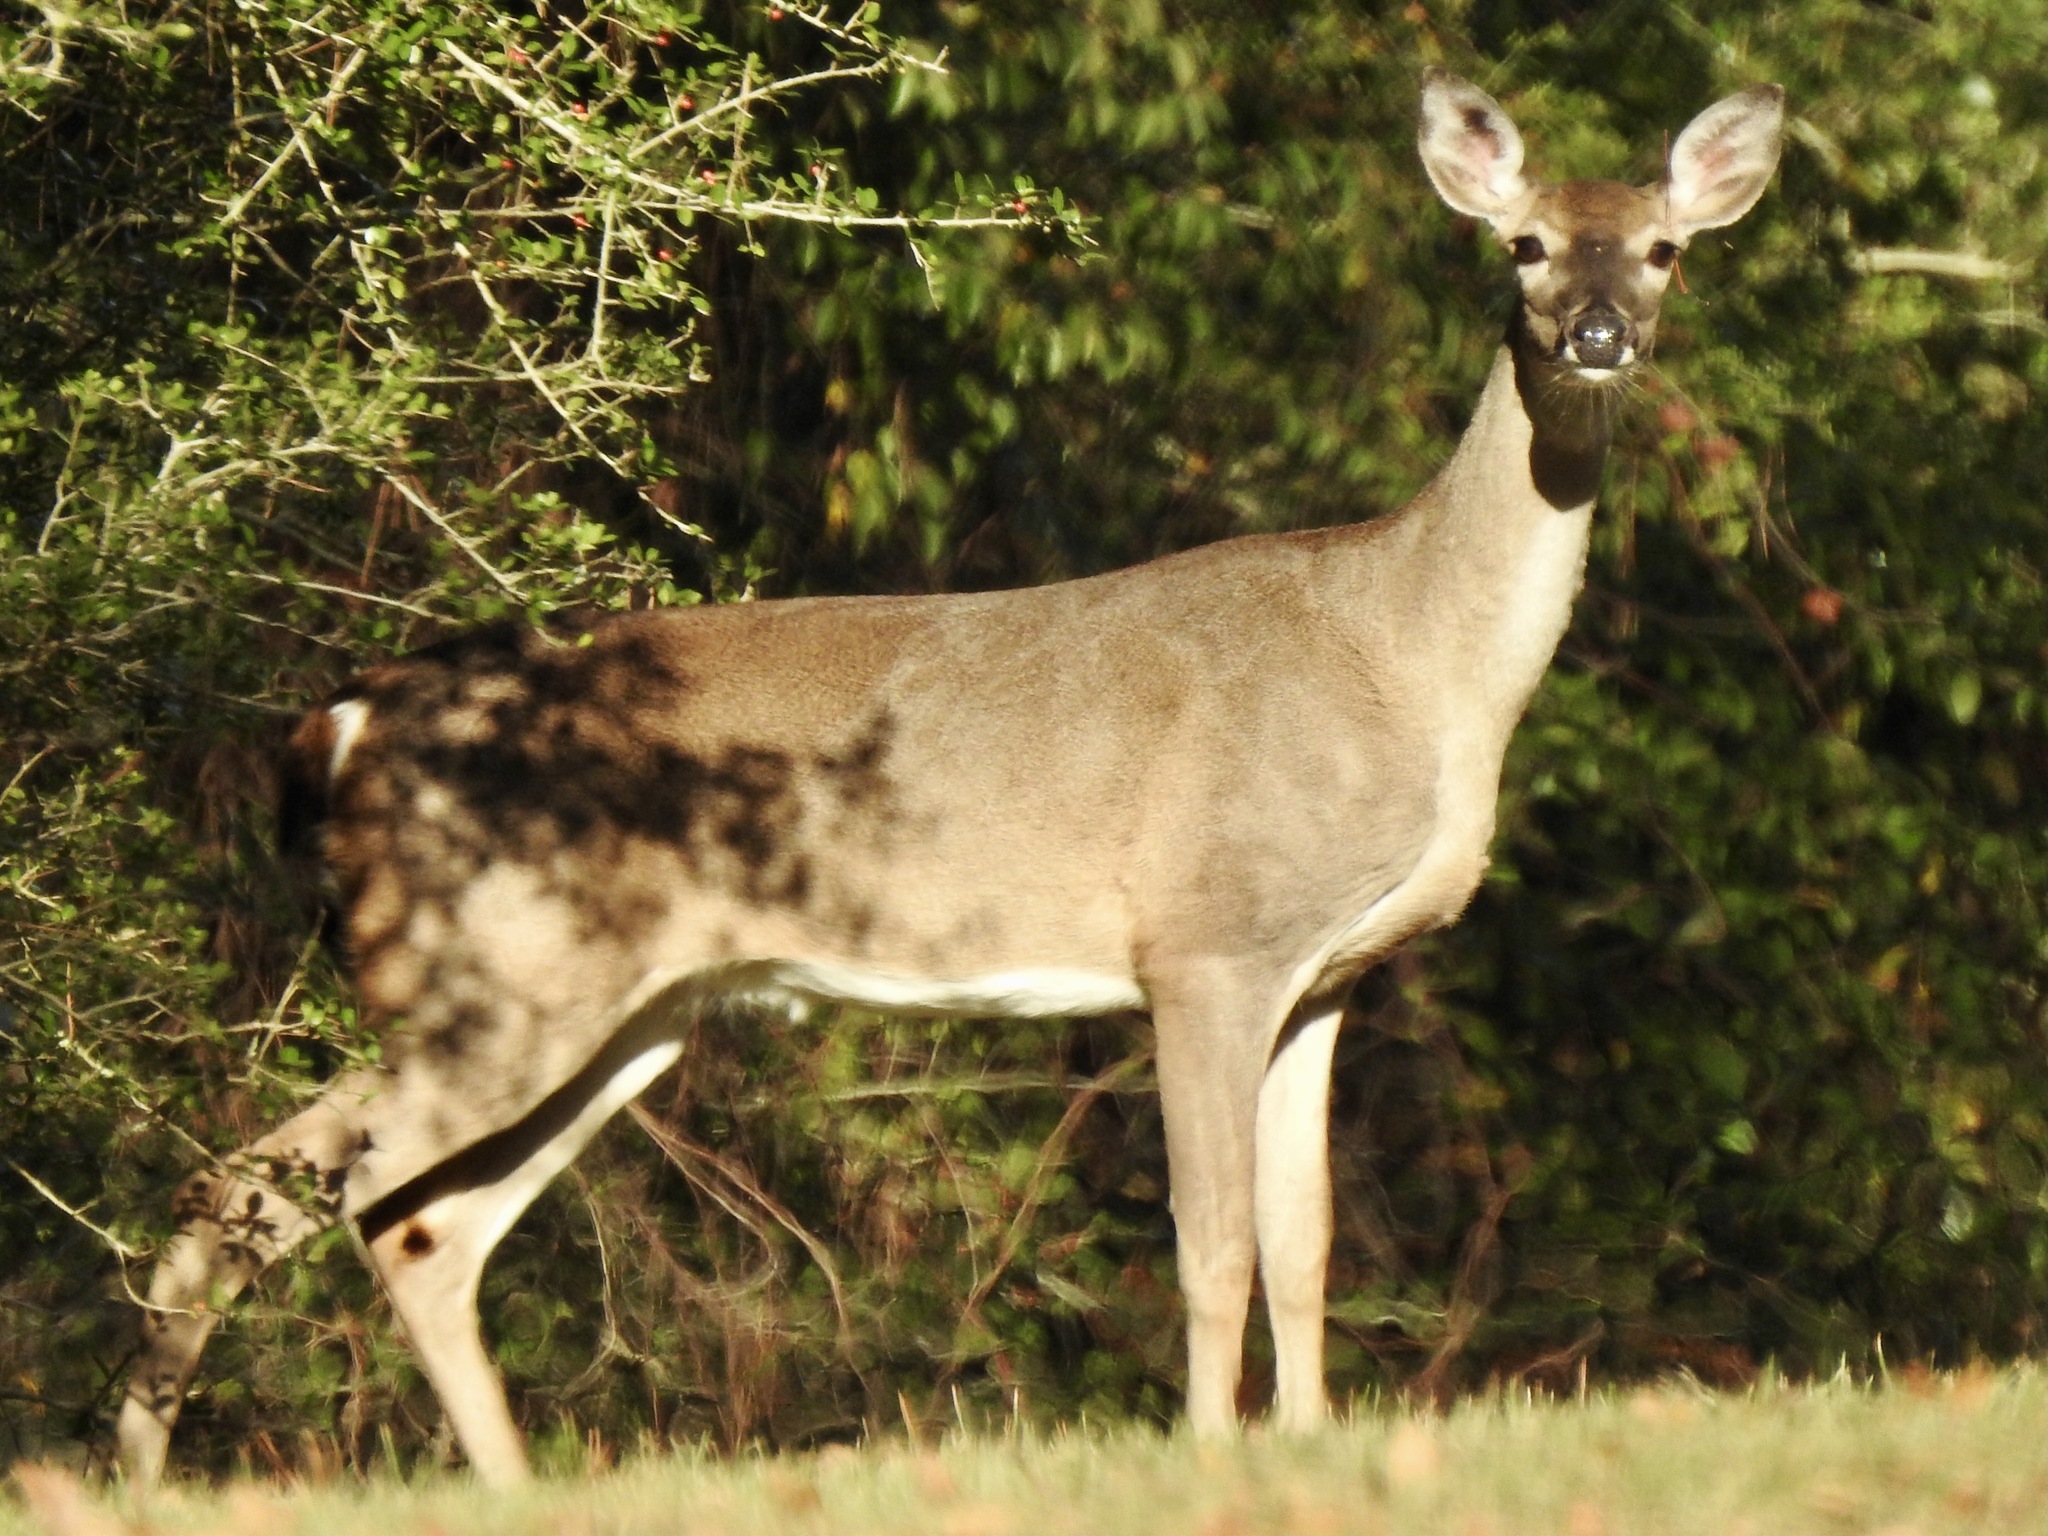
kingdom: Animalia
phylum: Chordata
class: Mammalia
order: Artiodactyla
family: Cervidae
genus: Odocoileus
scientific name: Odocoileus virginianus
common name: White-tailed deer
